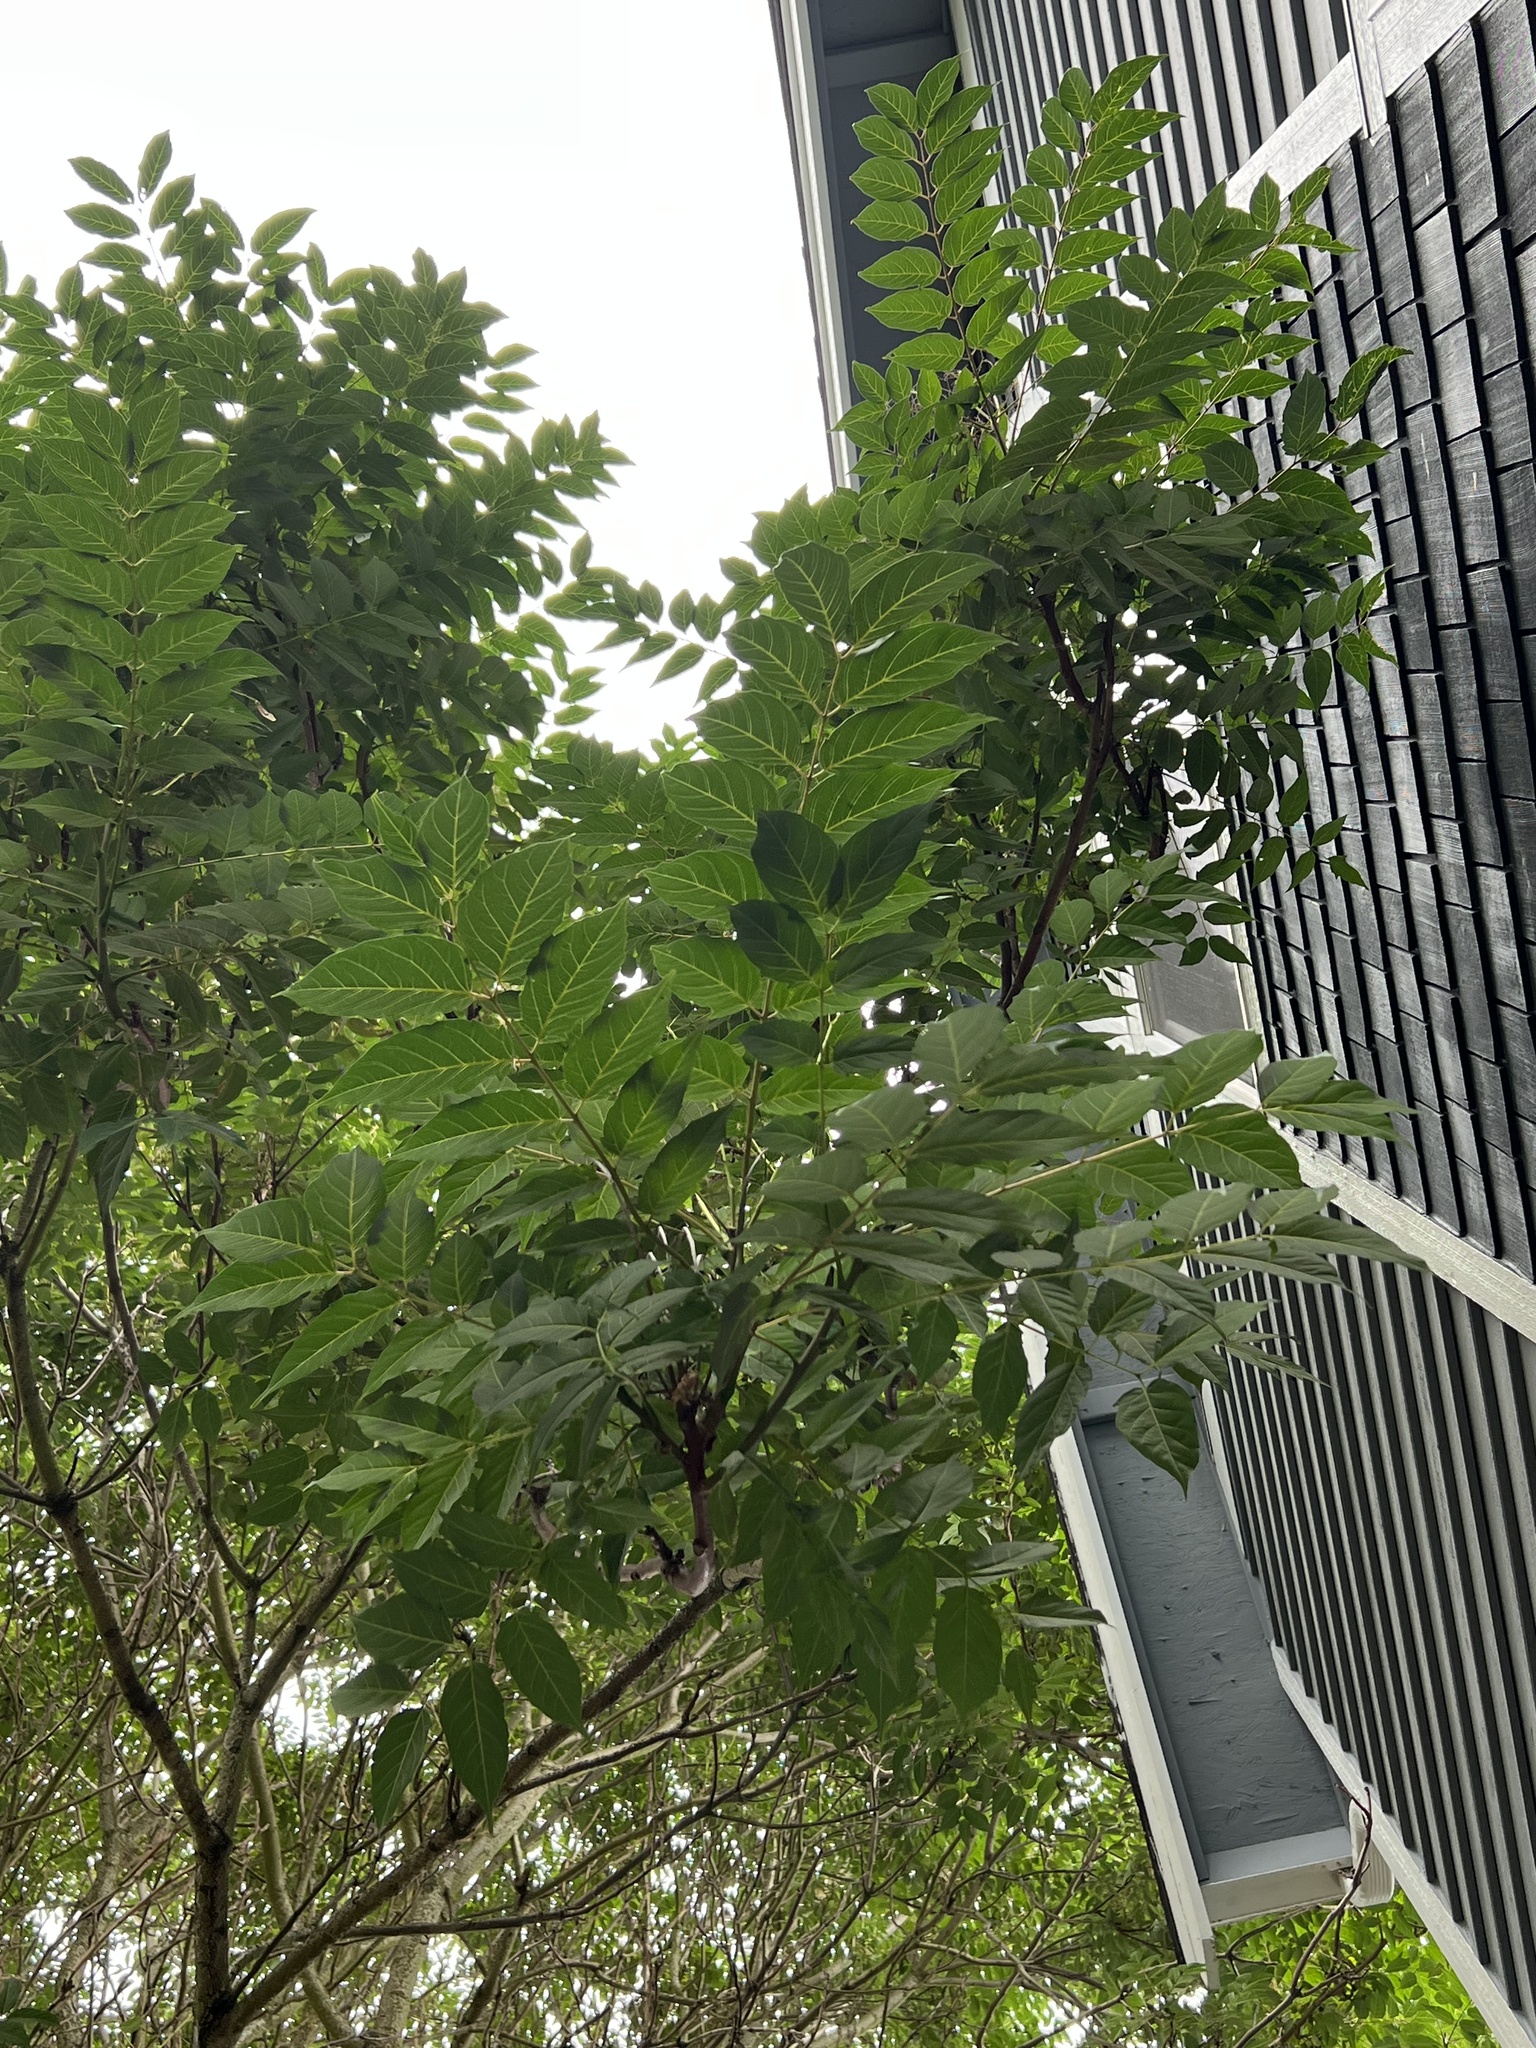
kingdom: Plantae
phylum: Tracheophyta
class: Magnoliopsida
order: Sapindales
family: Simaroubaceae
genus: Ailanthus
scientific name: Ailanthus altissima
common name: Tree-of-heaven
